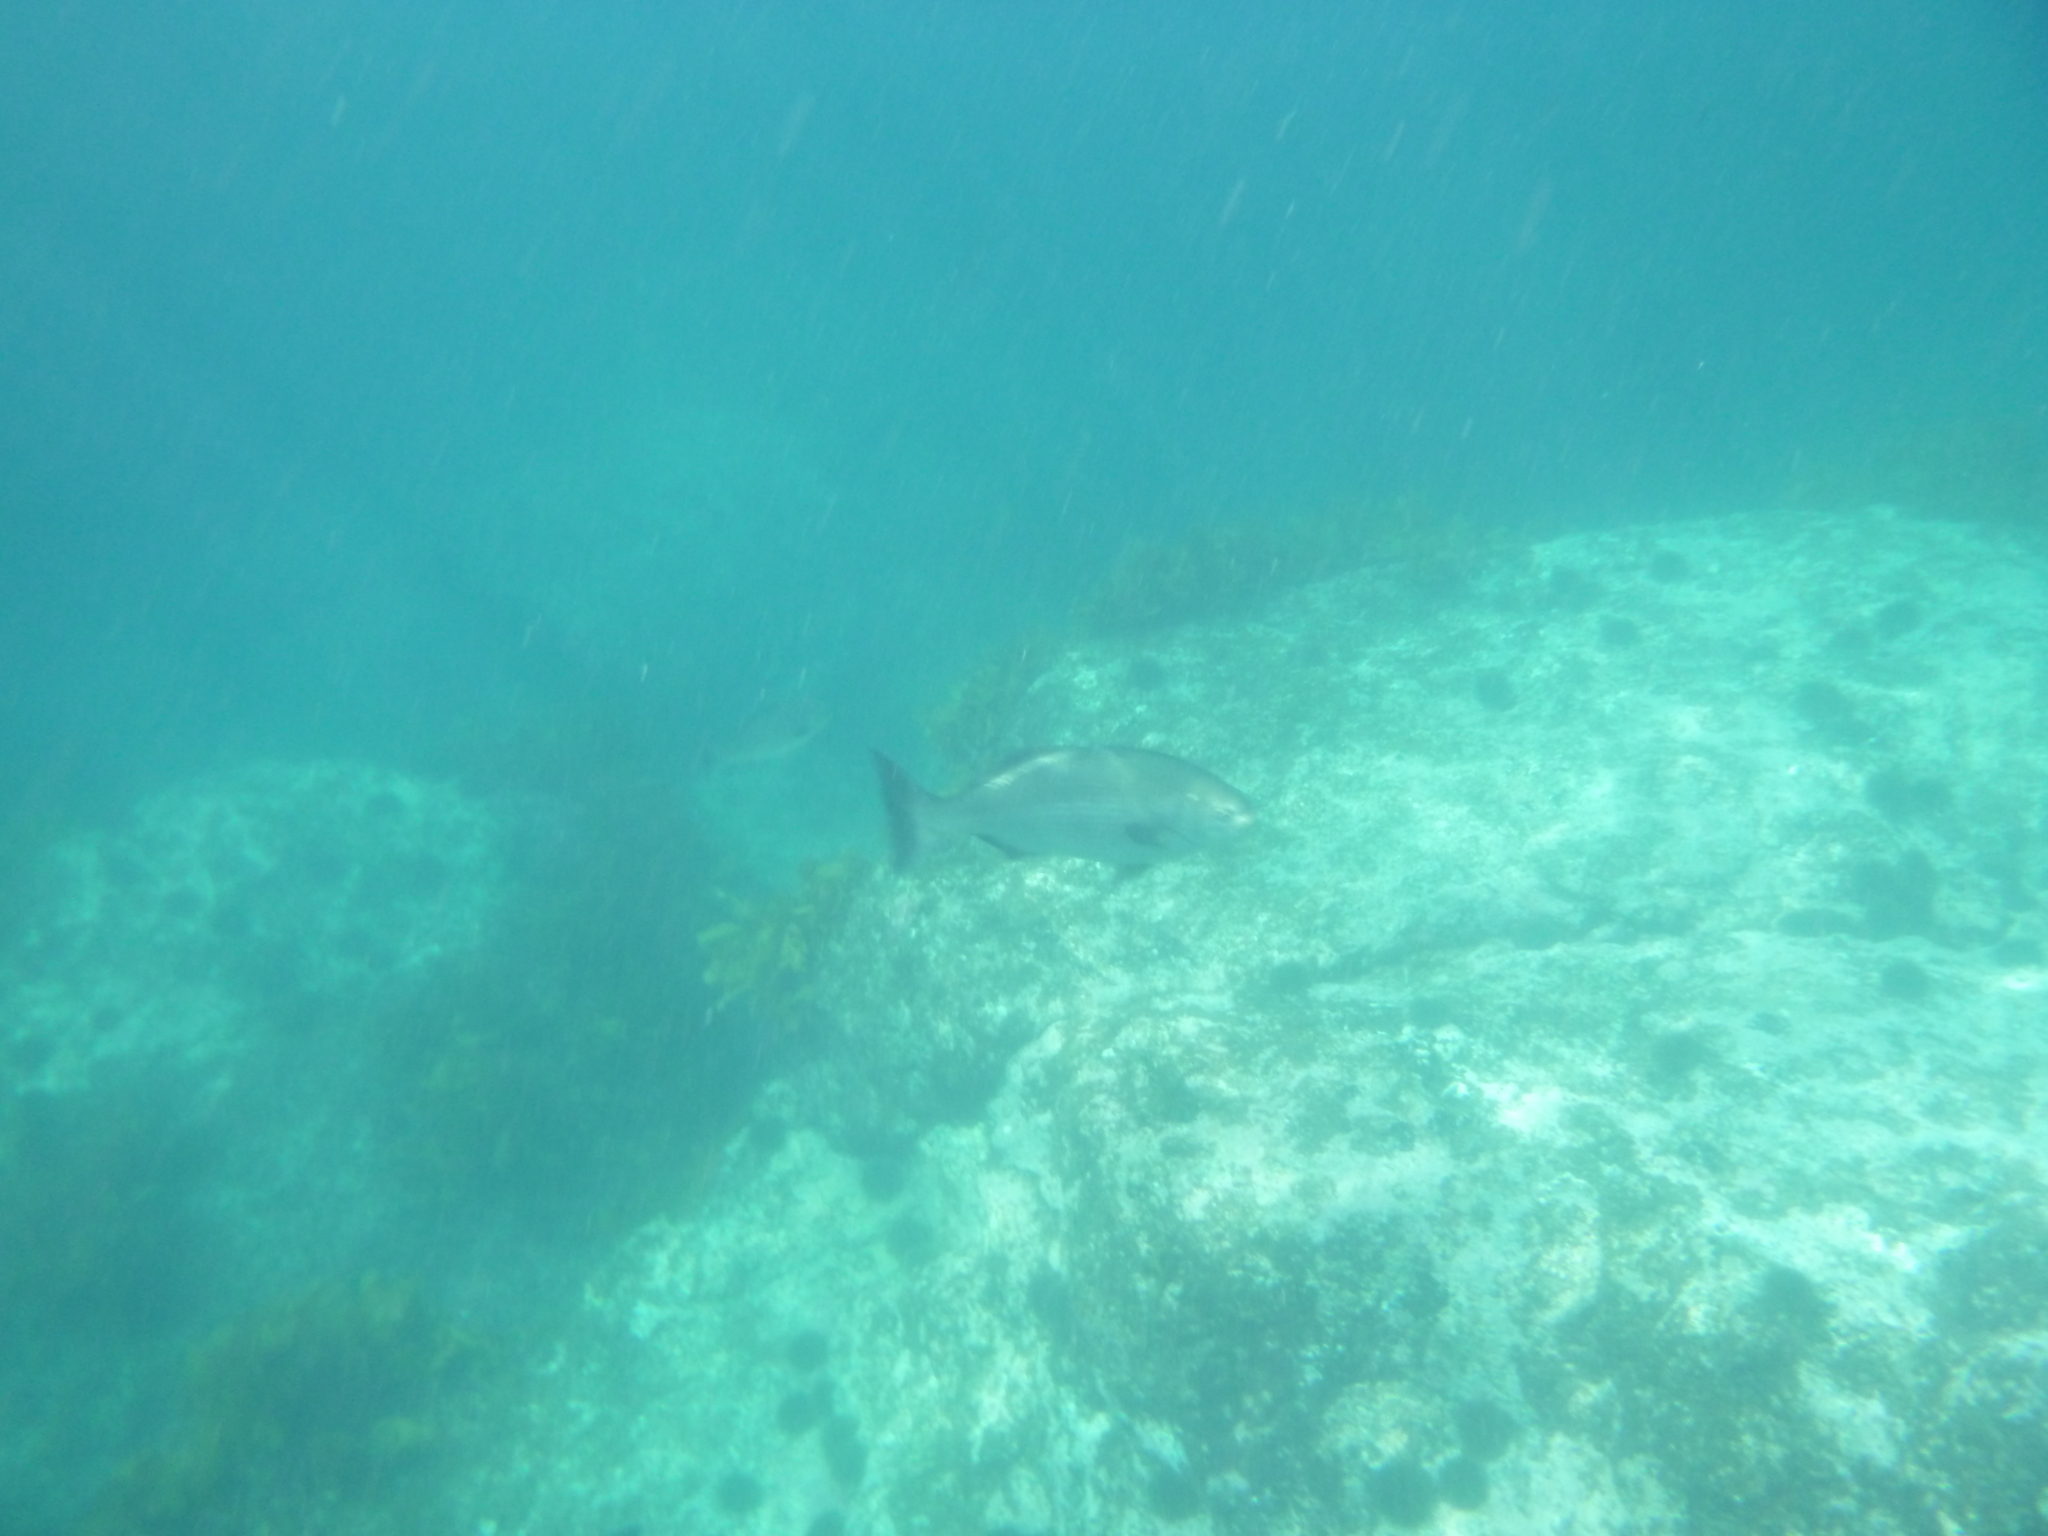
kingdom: Animalia
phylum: Chordata
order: Perciformes
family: Kyphosidae
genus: Kyphosus
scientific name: Kyphosus sydneyanus
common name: Silver drummer
